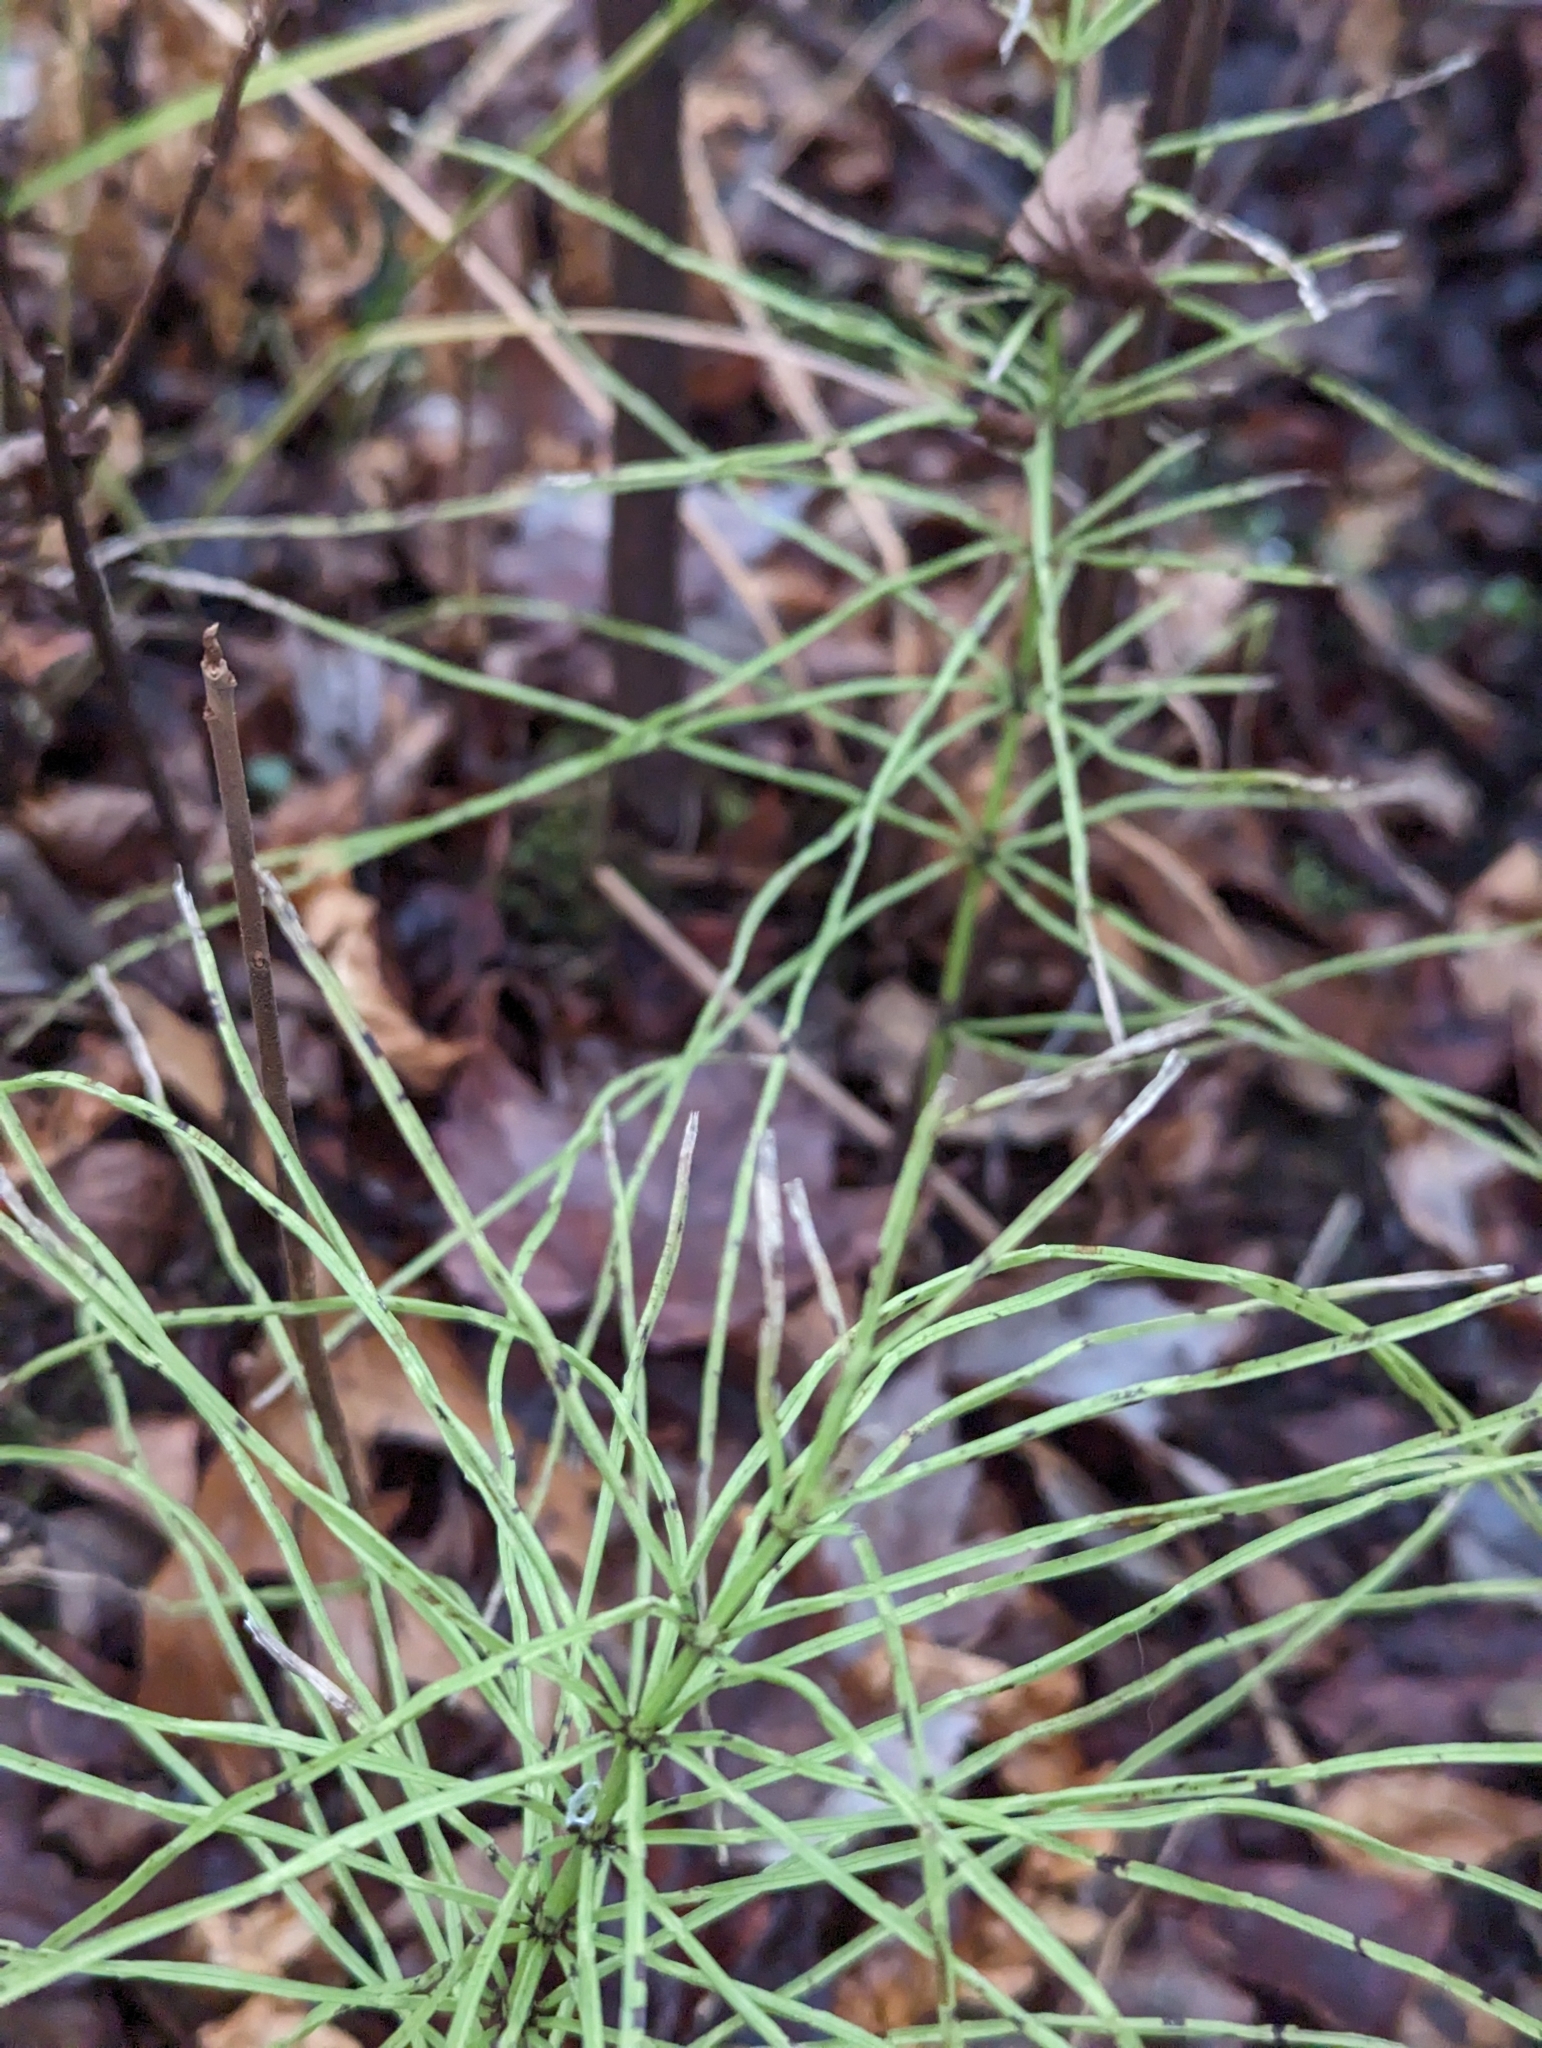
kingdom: Plantae
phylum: Tracheophyta
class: Polypodiopsida
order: Equisetales
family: Equisetaceae
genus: Equisetum
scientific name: Equisetum arvense
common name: Field horsetail
